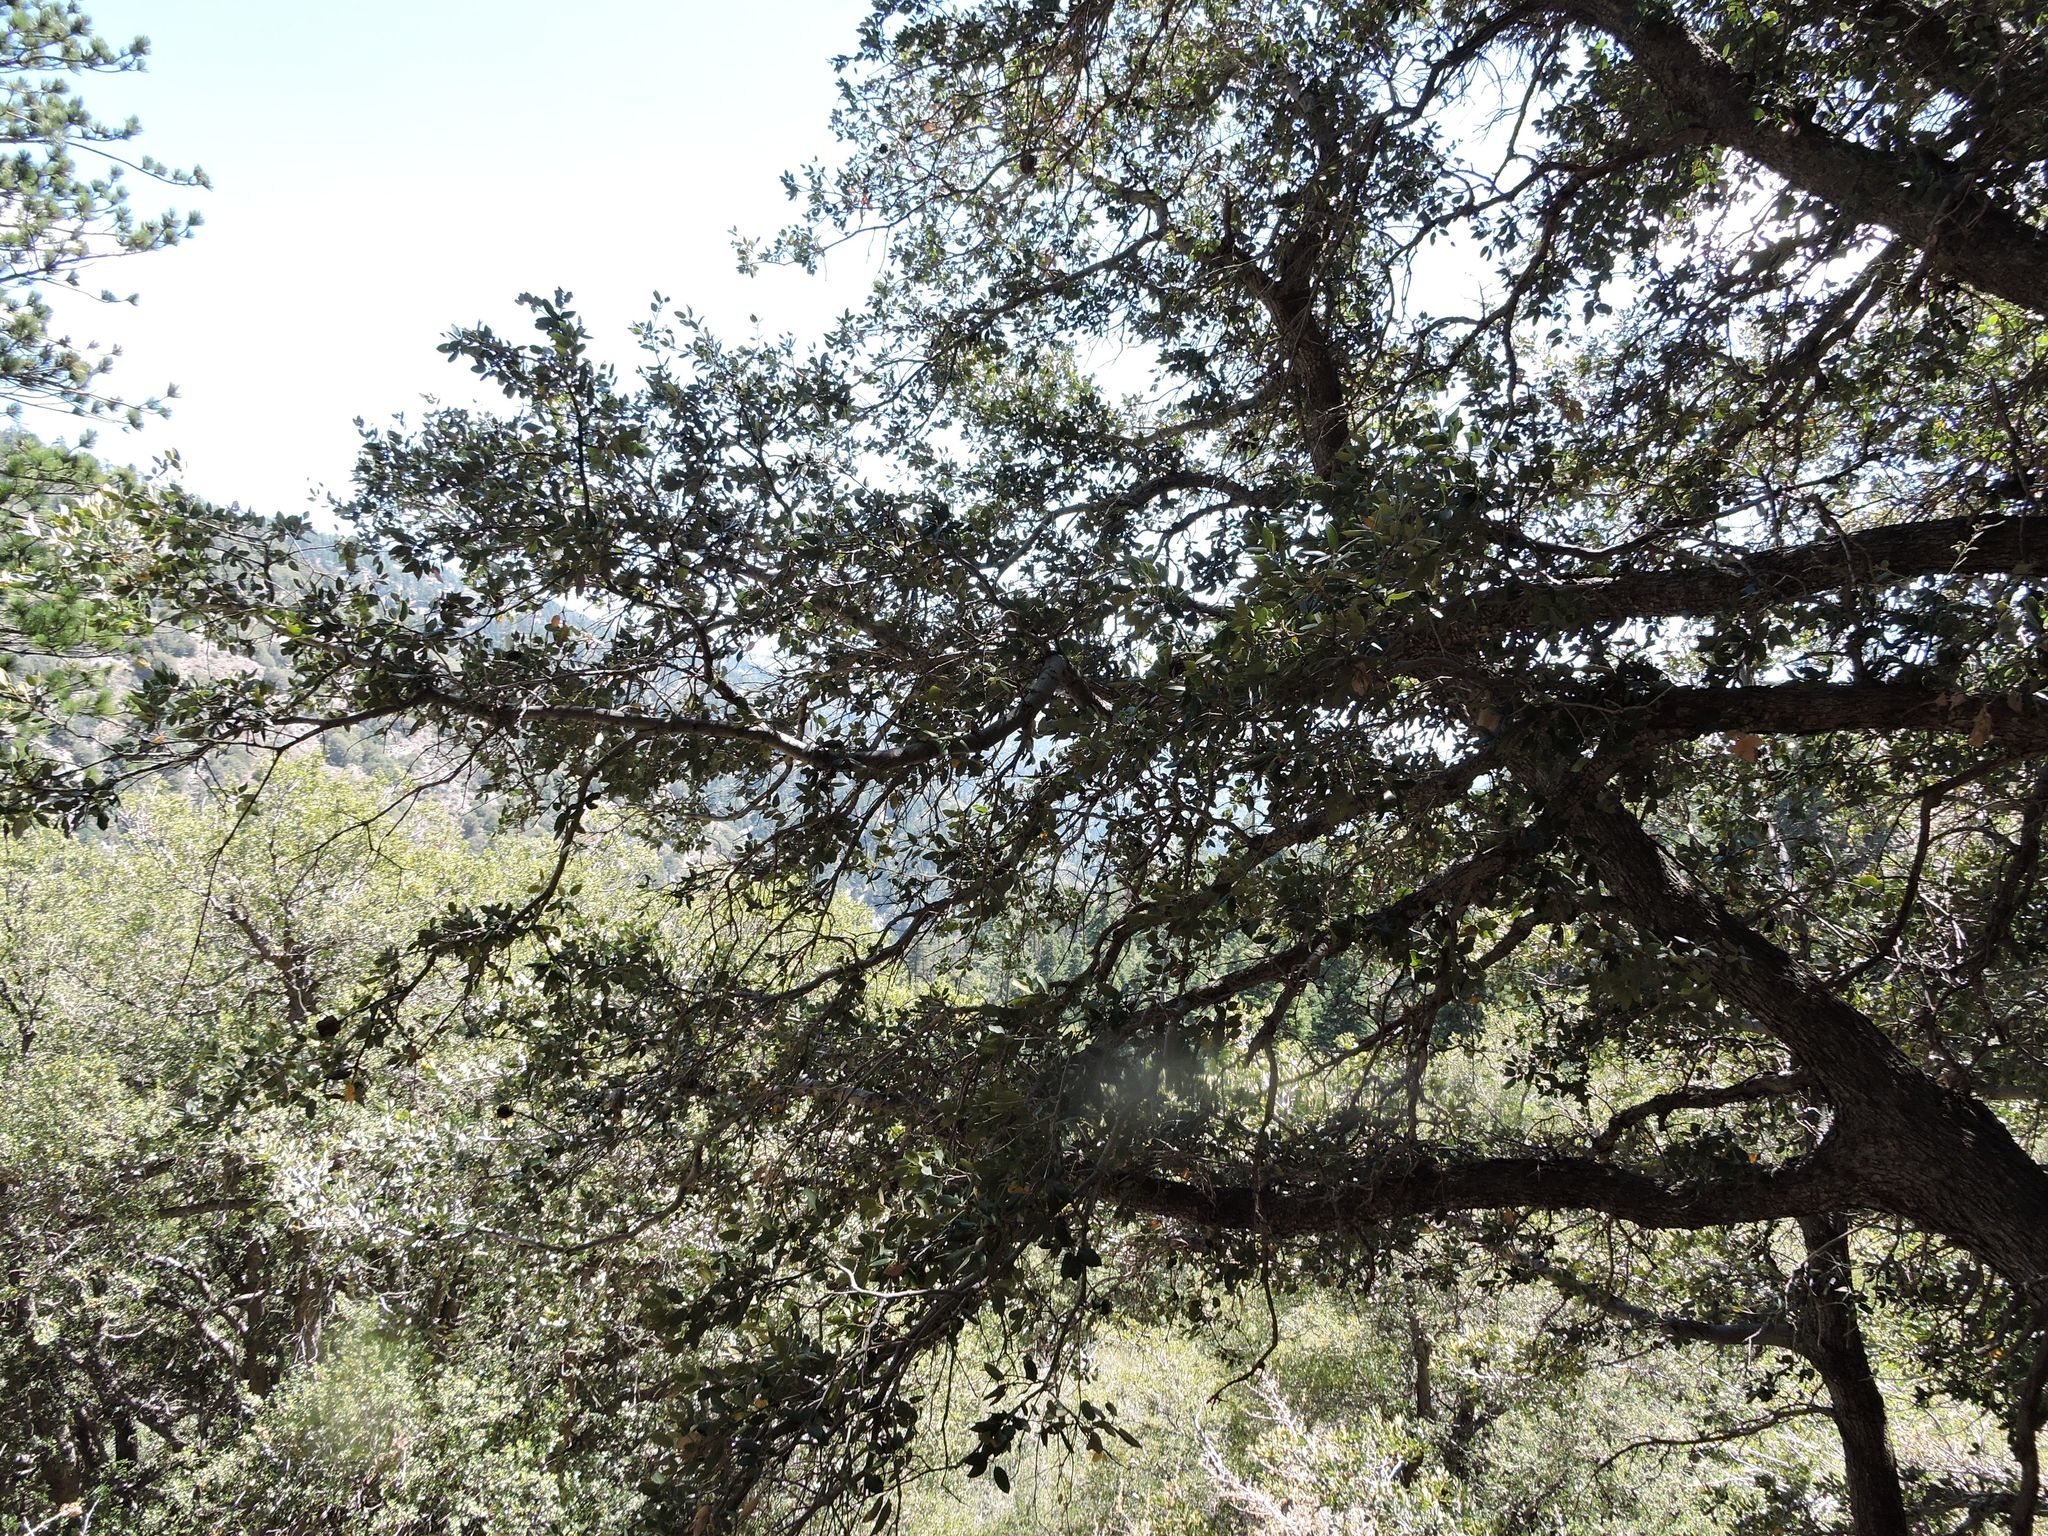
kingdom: Plantae
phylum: Tracheophyta
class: Magnoliopsida
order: Fagales
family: Fagaceae
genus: Quercus
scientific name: Quercus chrysolepis
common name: Canyon live oak
